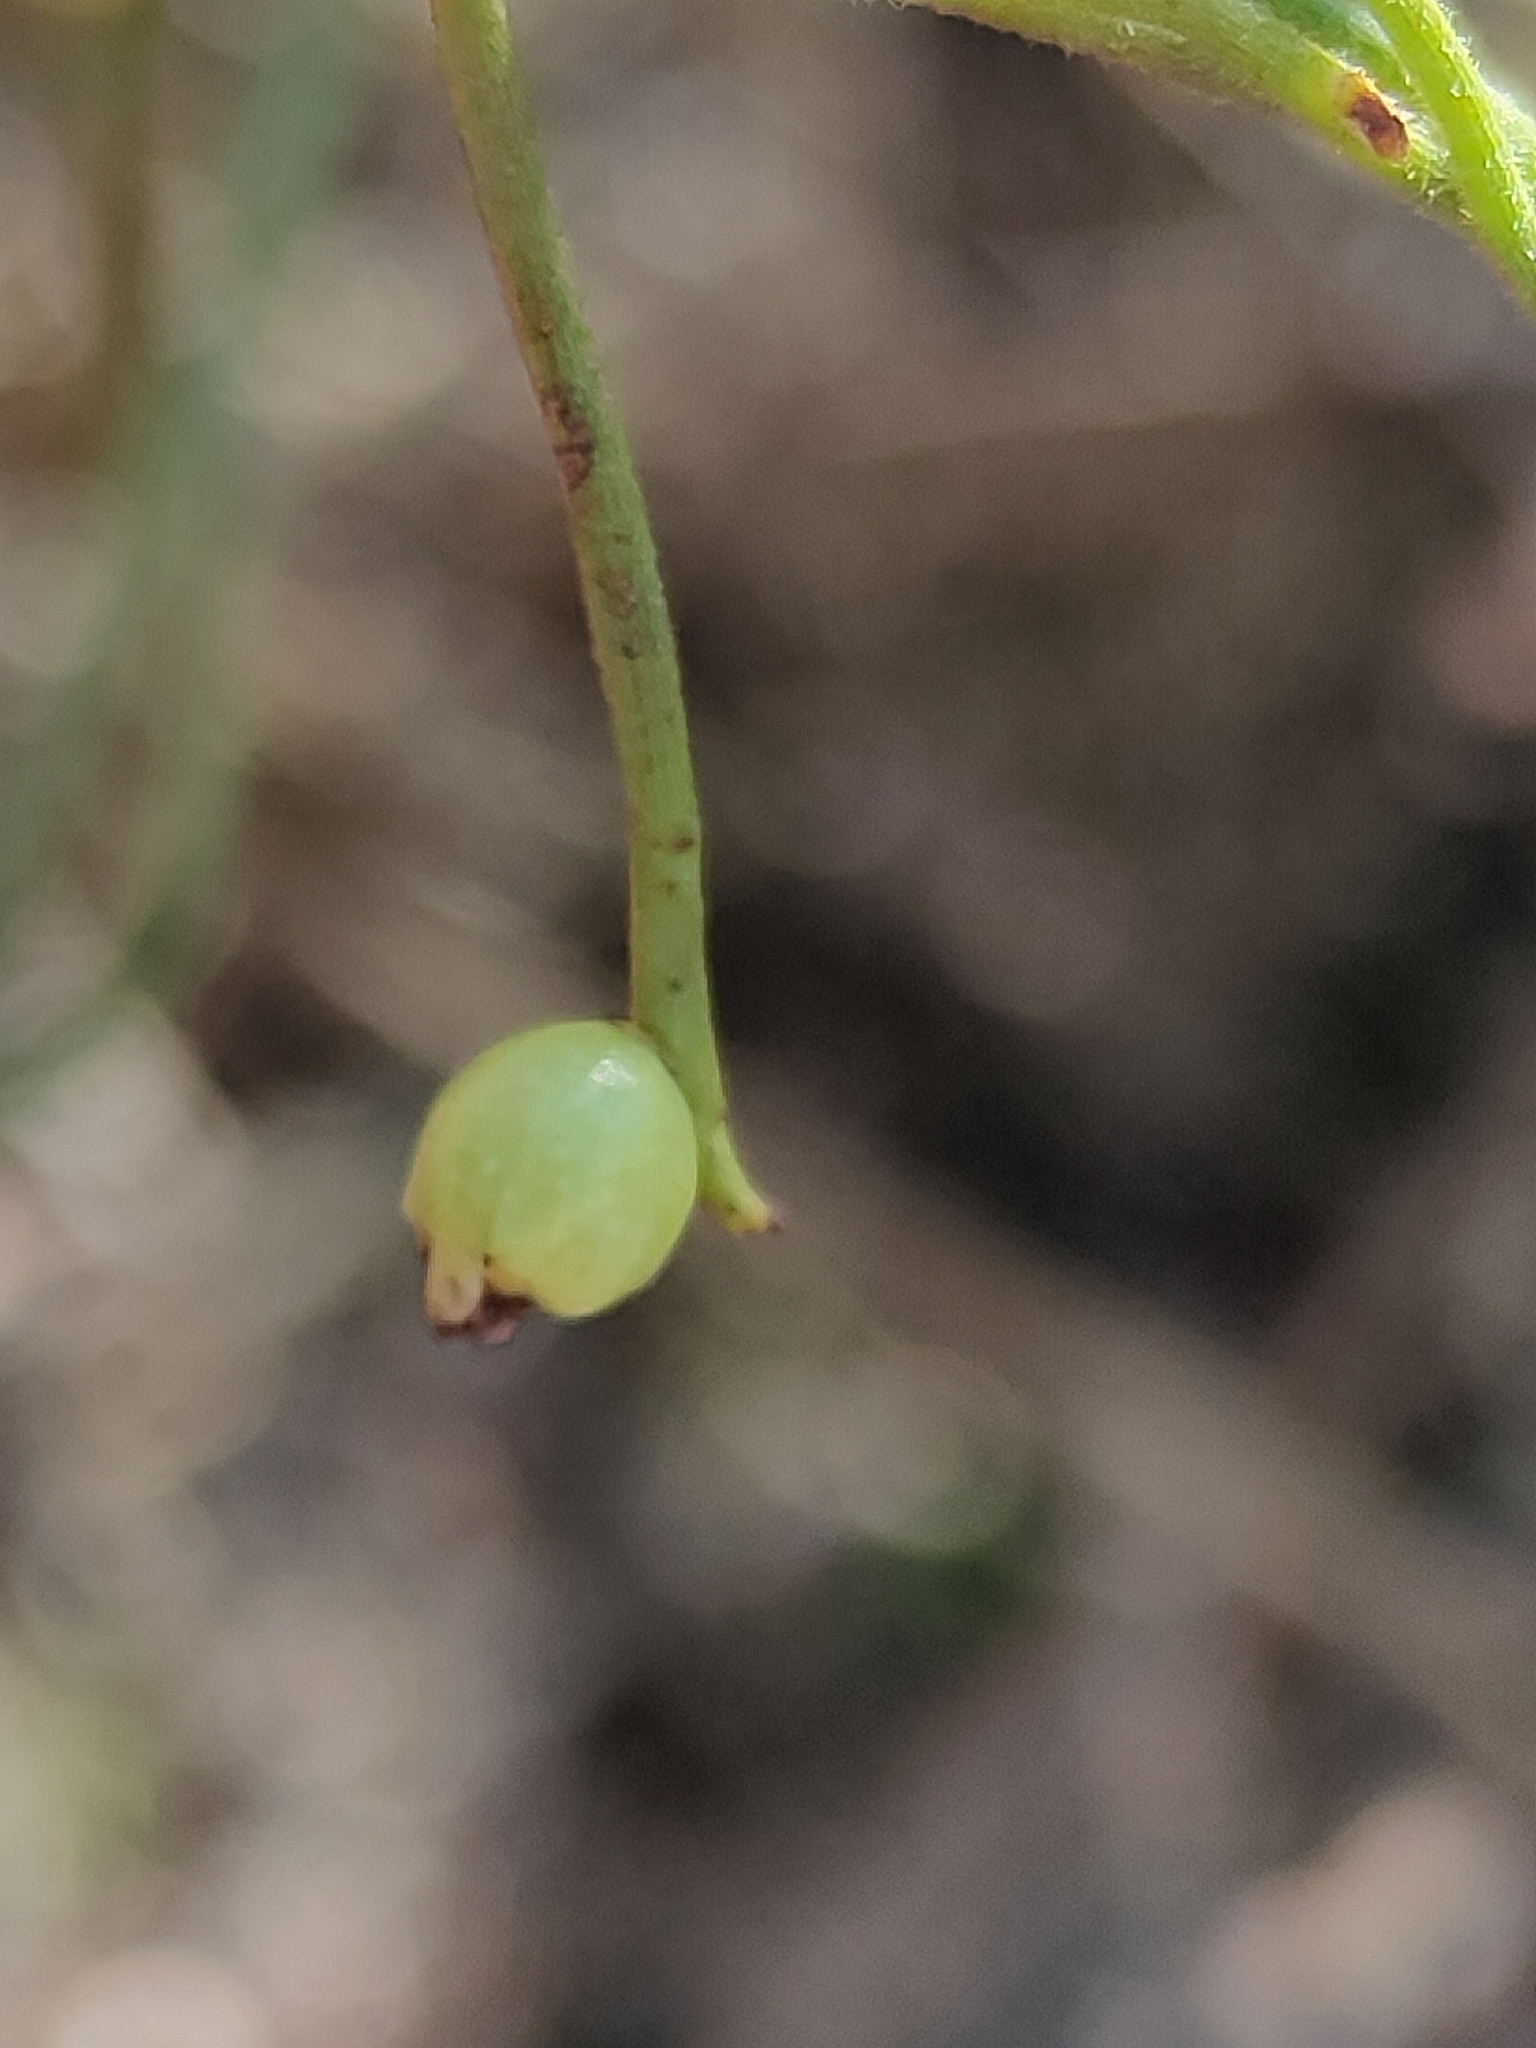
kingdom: Plantae
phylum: Tracheophyta
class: Magnoliopsida
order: Laurales
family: Lauraceae
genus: Cassytha
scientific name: Cassytha filiformis
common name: Dodder-laurel
